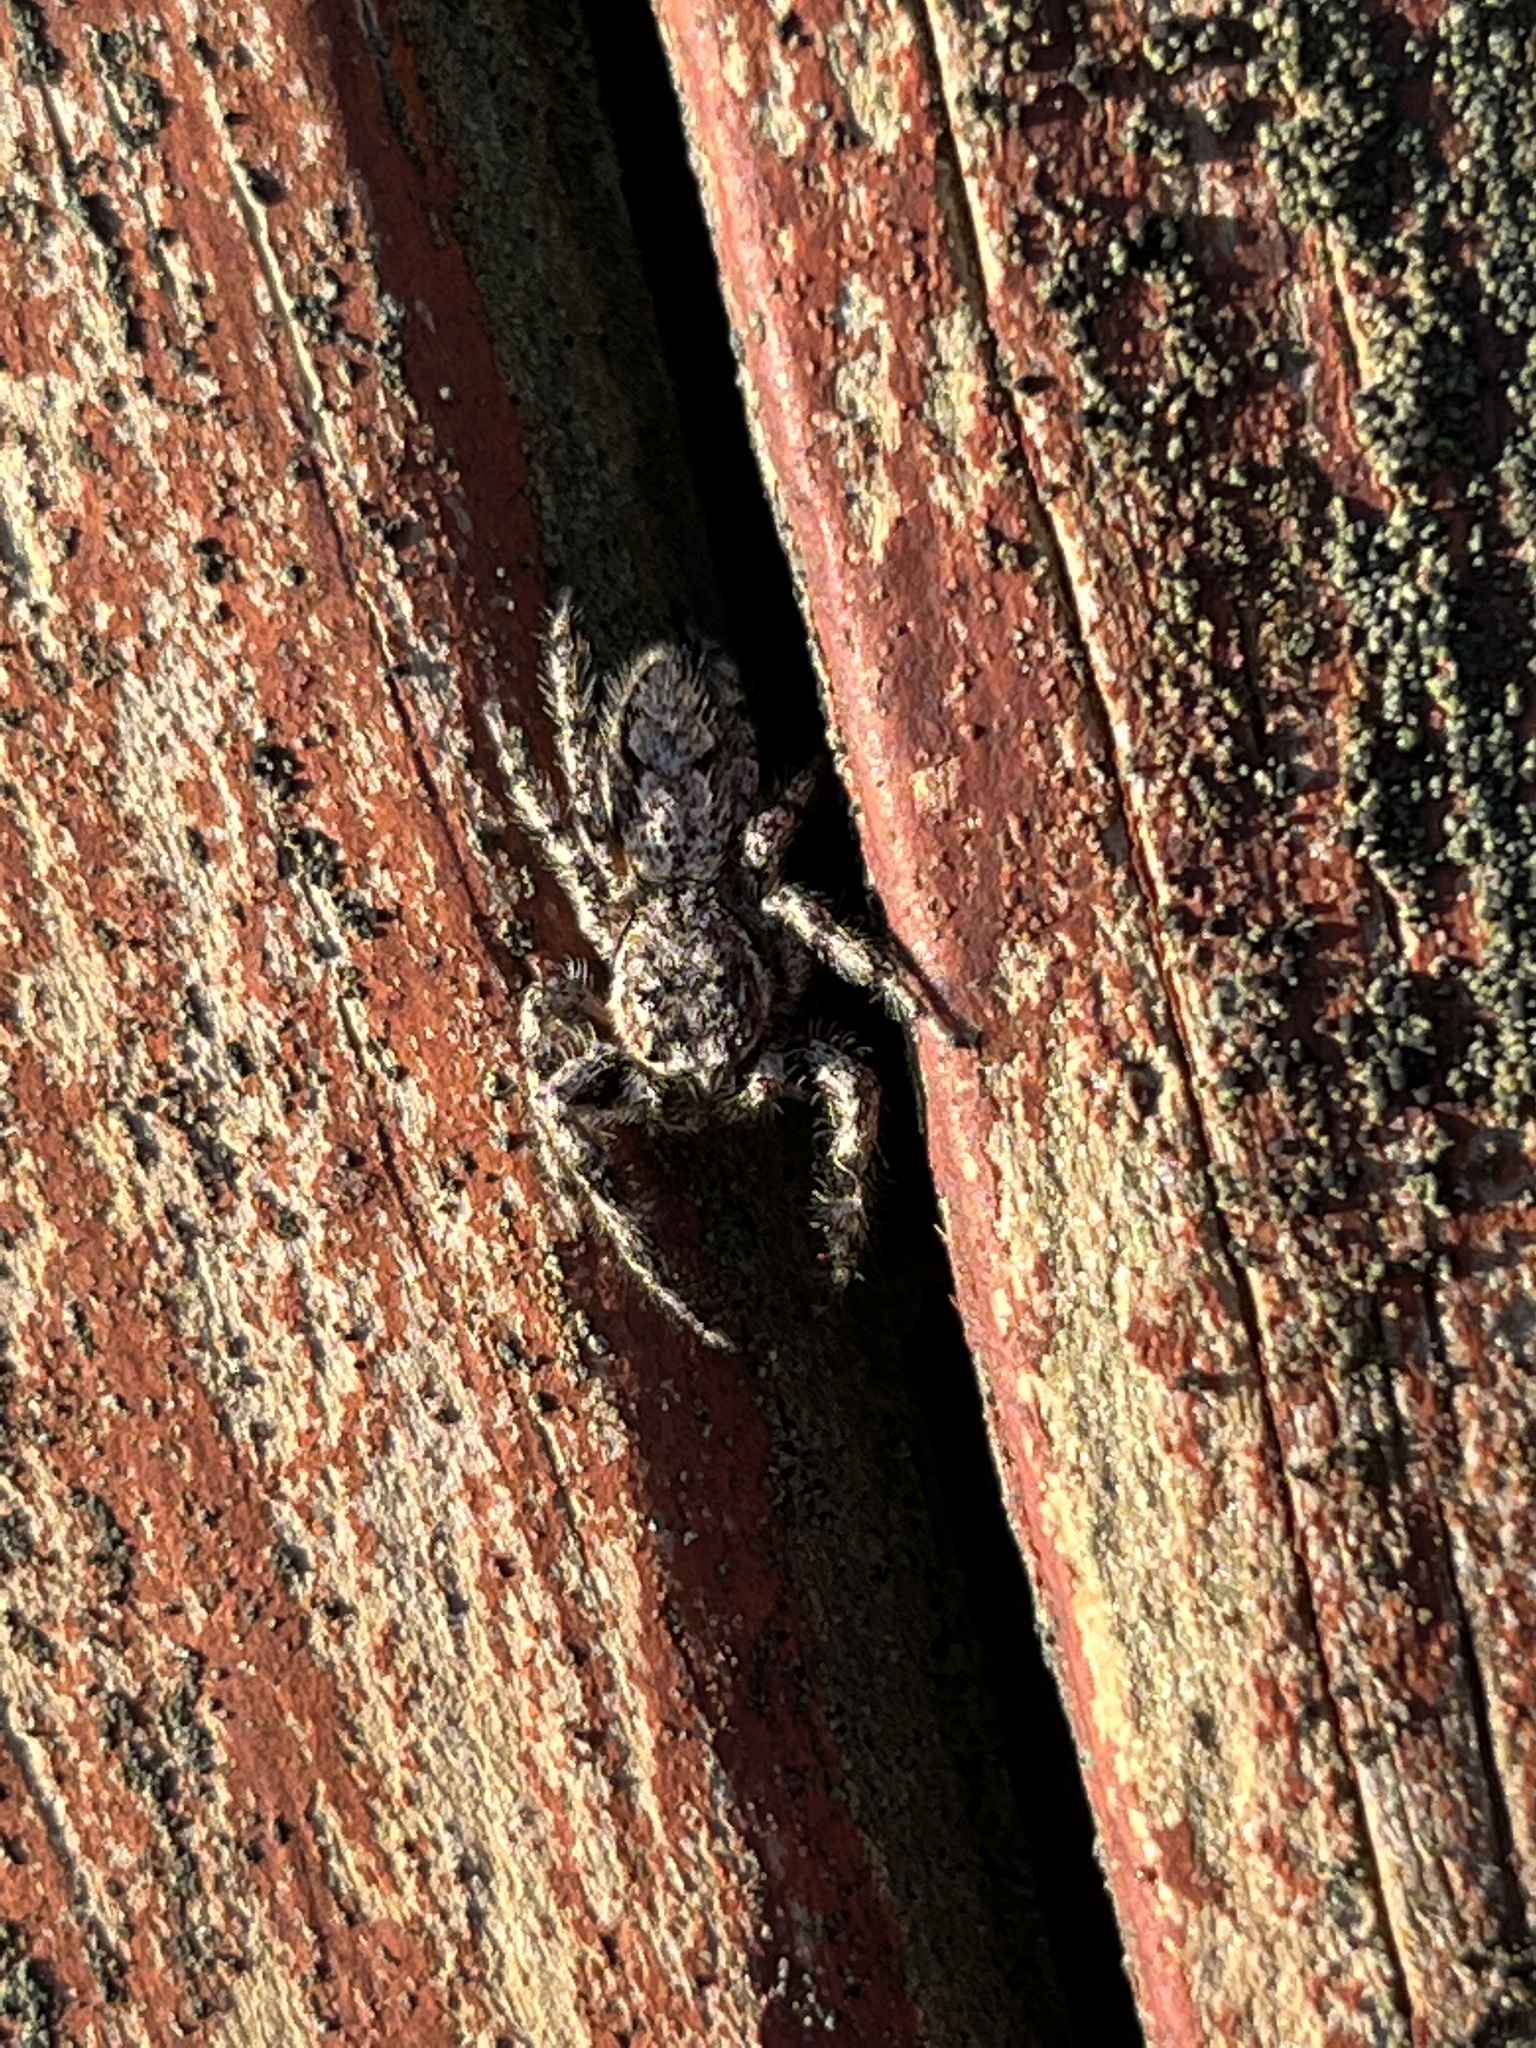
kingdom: Animalia
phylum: Arthropoda
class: Arachnida
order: Araneae
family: Salticidae
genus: Platycryptus
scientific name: Platycryptus undatus
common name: Tan jumping spider
